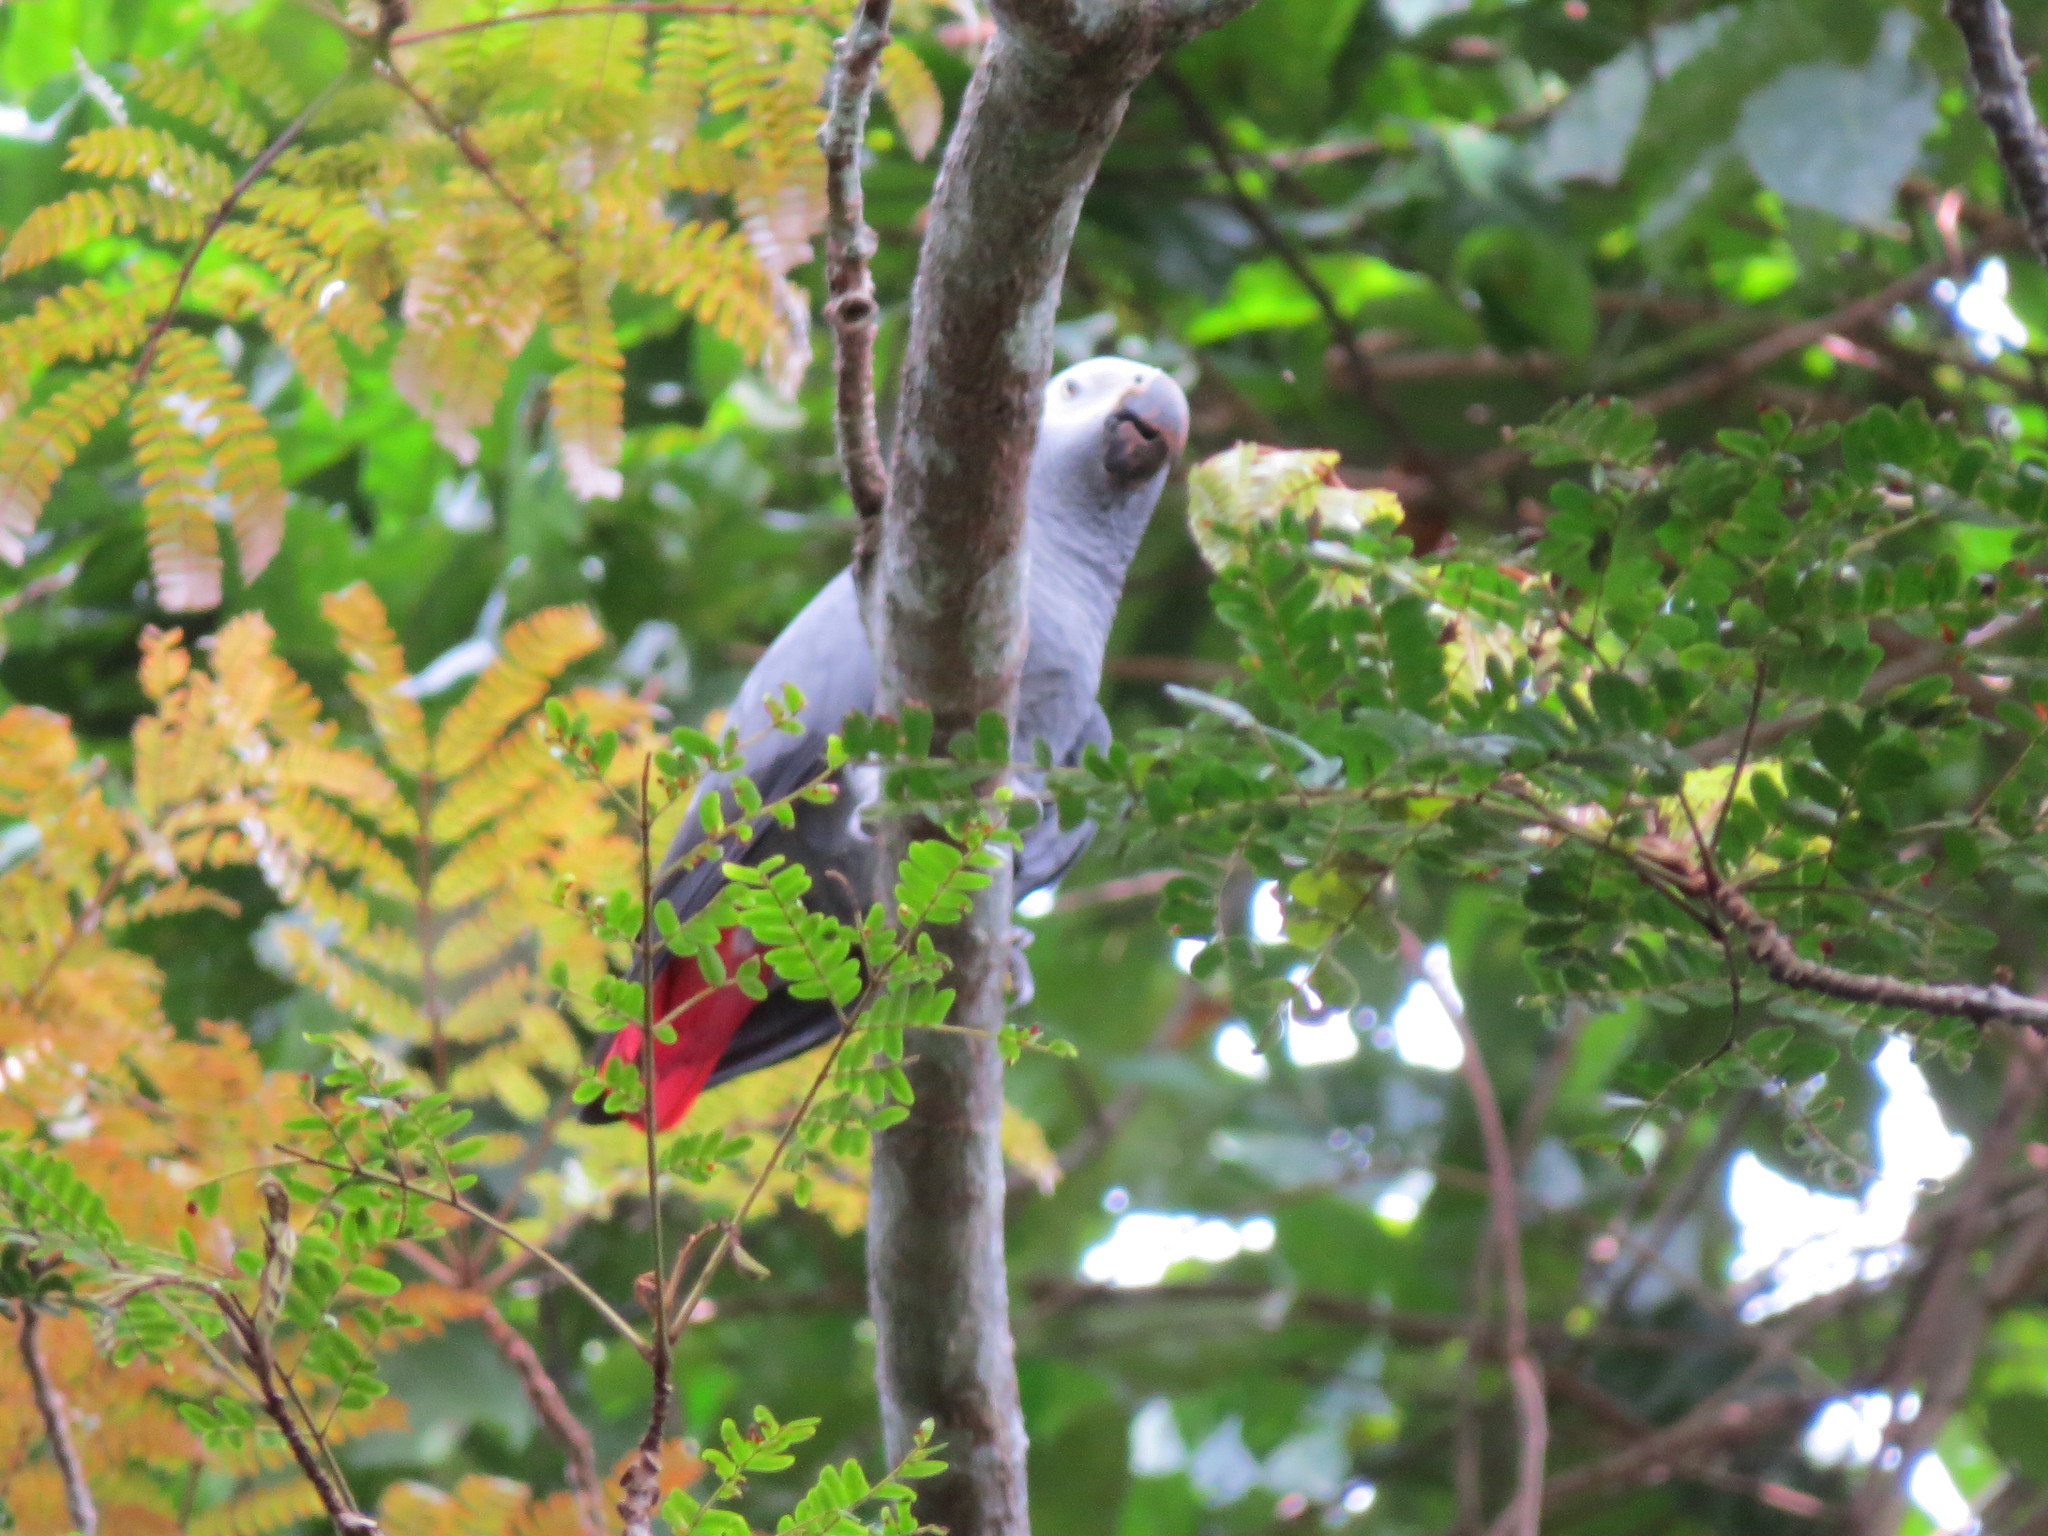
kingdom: Animalia
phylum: Chordata
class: Aves
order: Psittaciformes
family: Psittacidae
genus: Psittacus
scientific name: Psittacus erithacus
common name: Grey parrot
